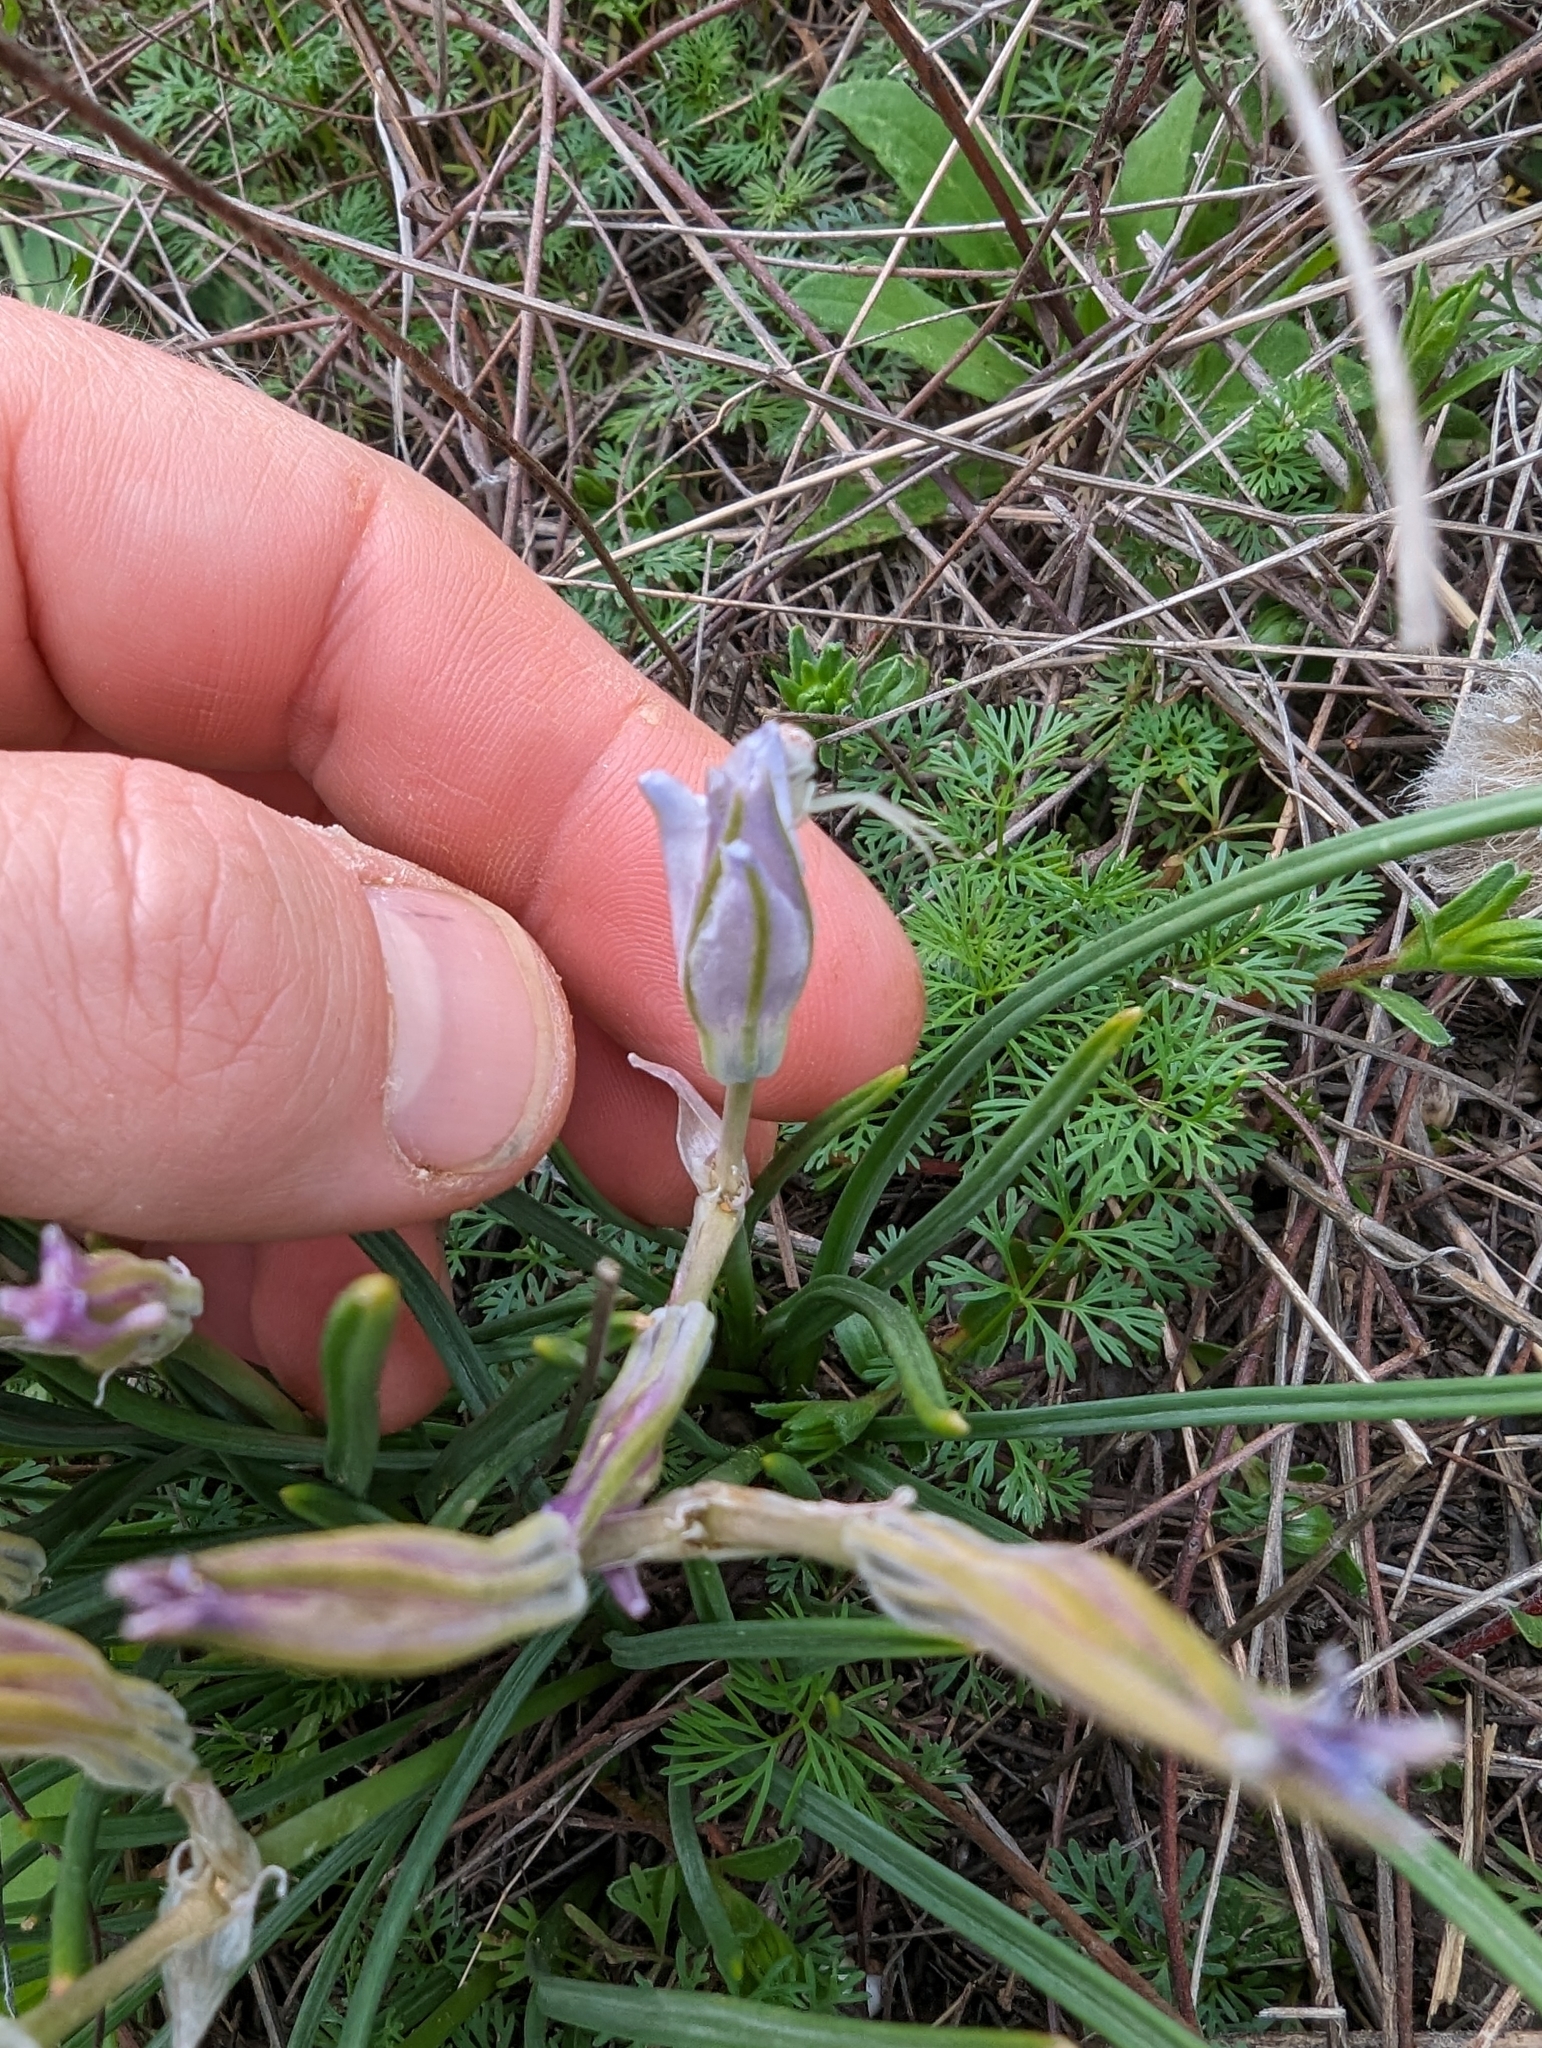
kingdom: Plantae
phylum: Tracheophyta
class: Liliopsida
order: Asparagales
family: Asparagaceae
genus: Androstephium
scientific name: Androstephium coeruleum
